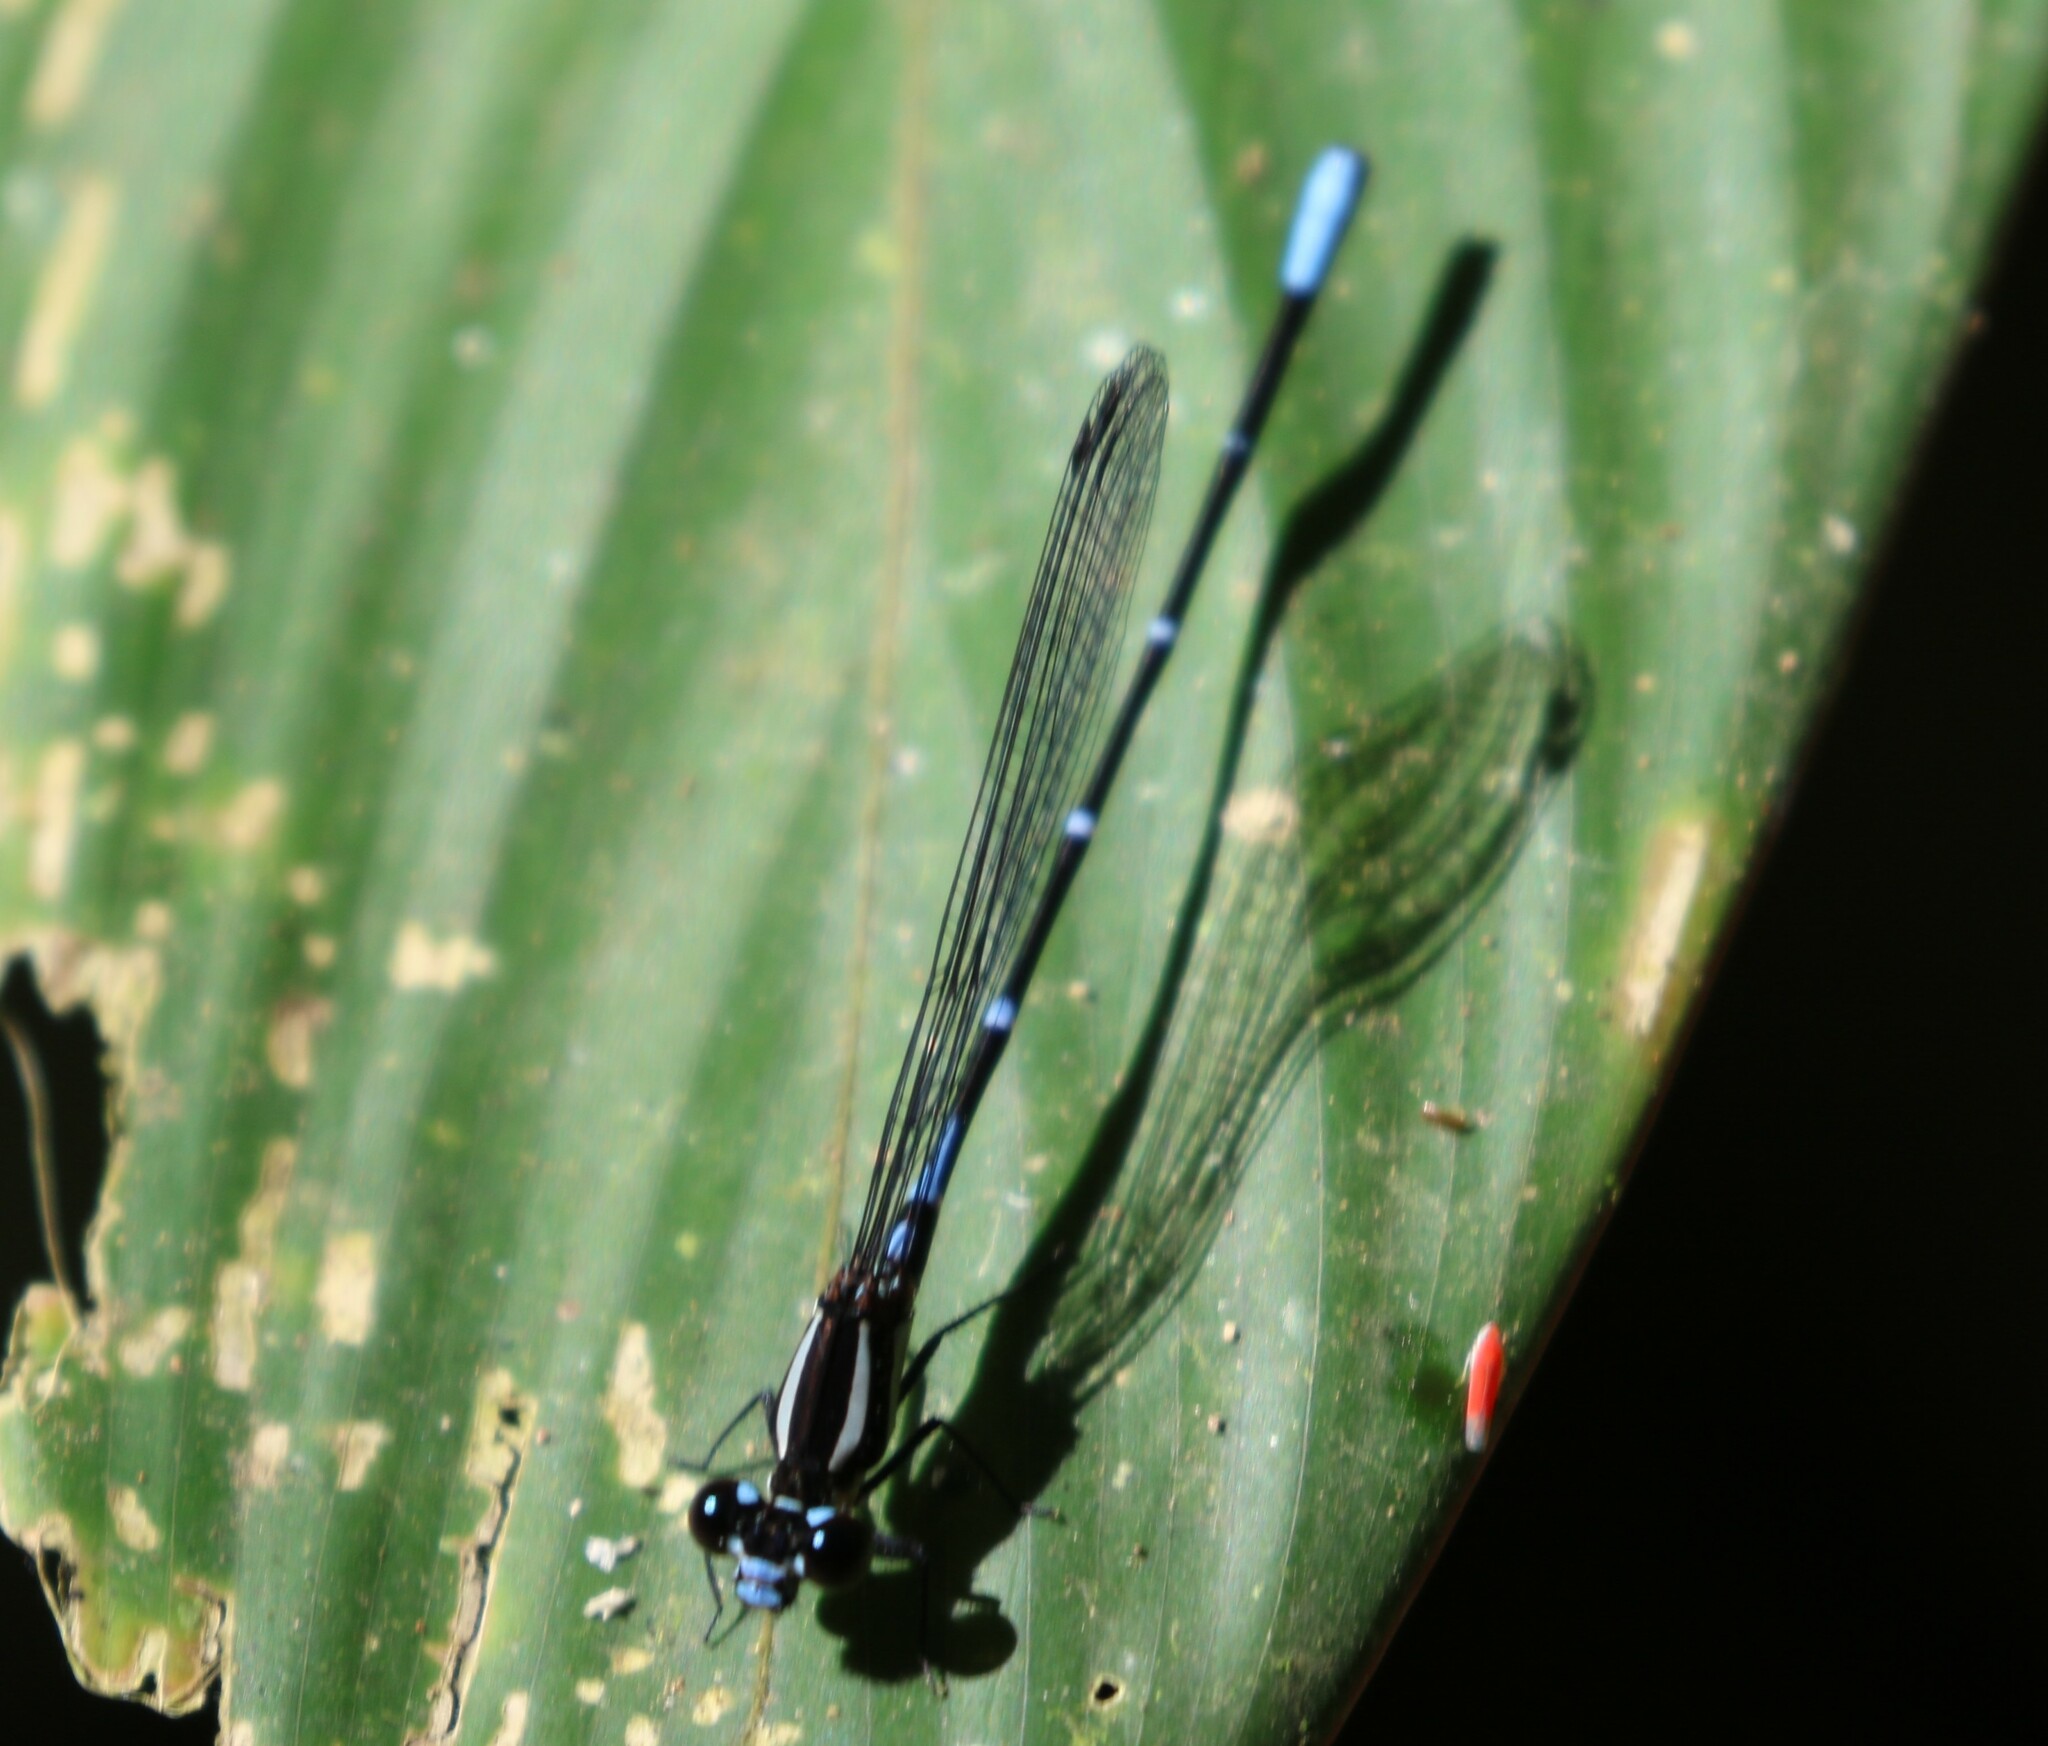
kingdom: Animalia
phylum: Arthropoda
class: Insecta
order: Odonata
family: Coenagrionidae
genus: Argia
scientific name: Argia oculata
